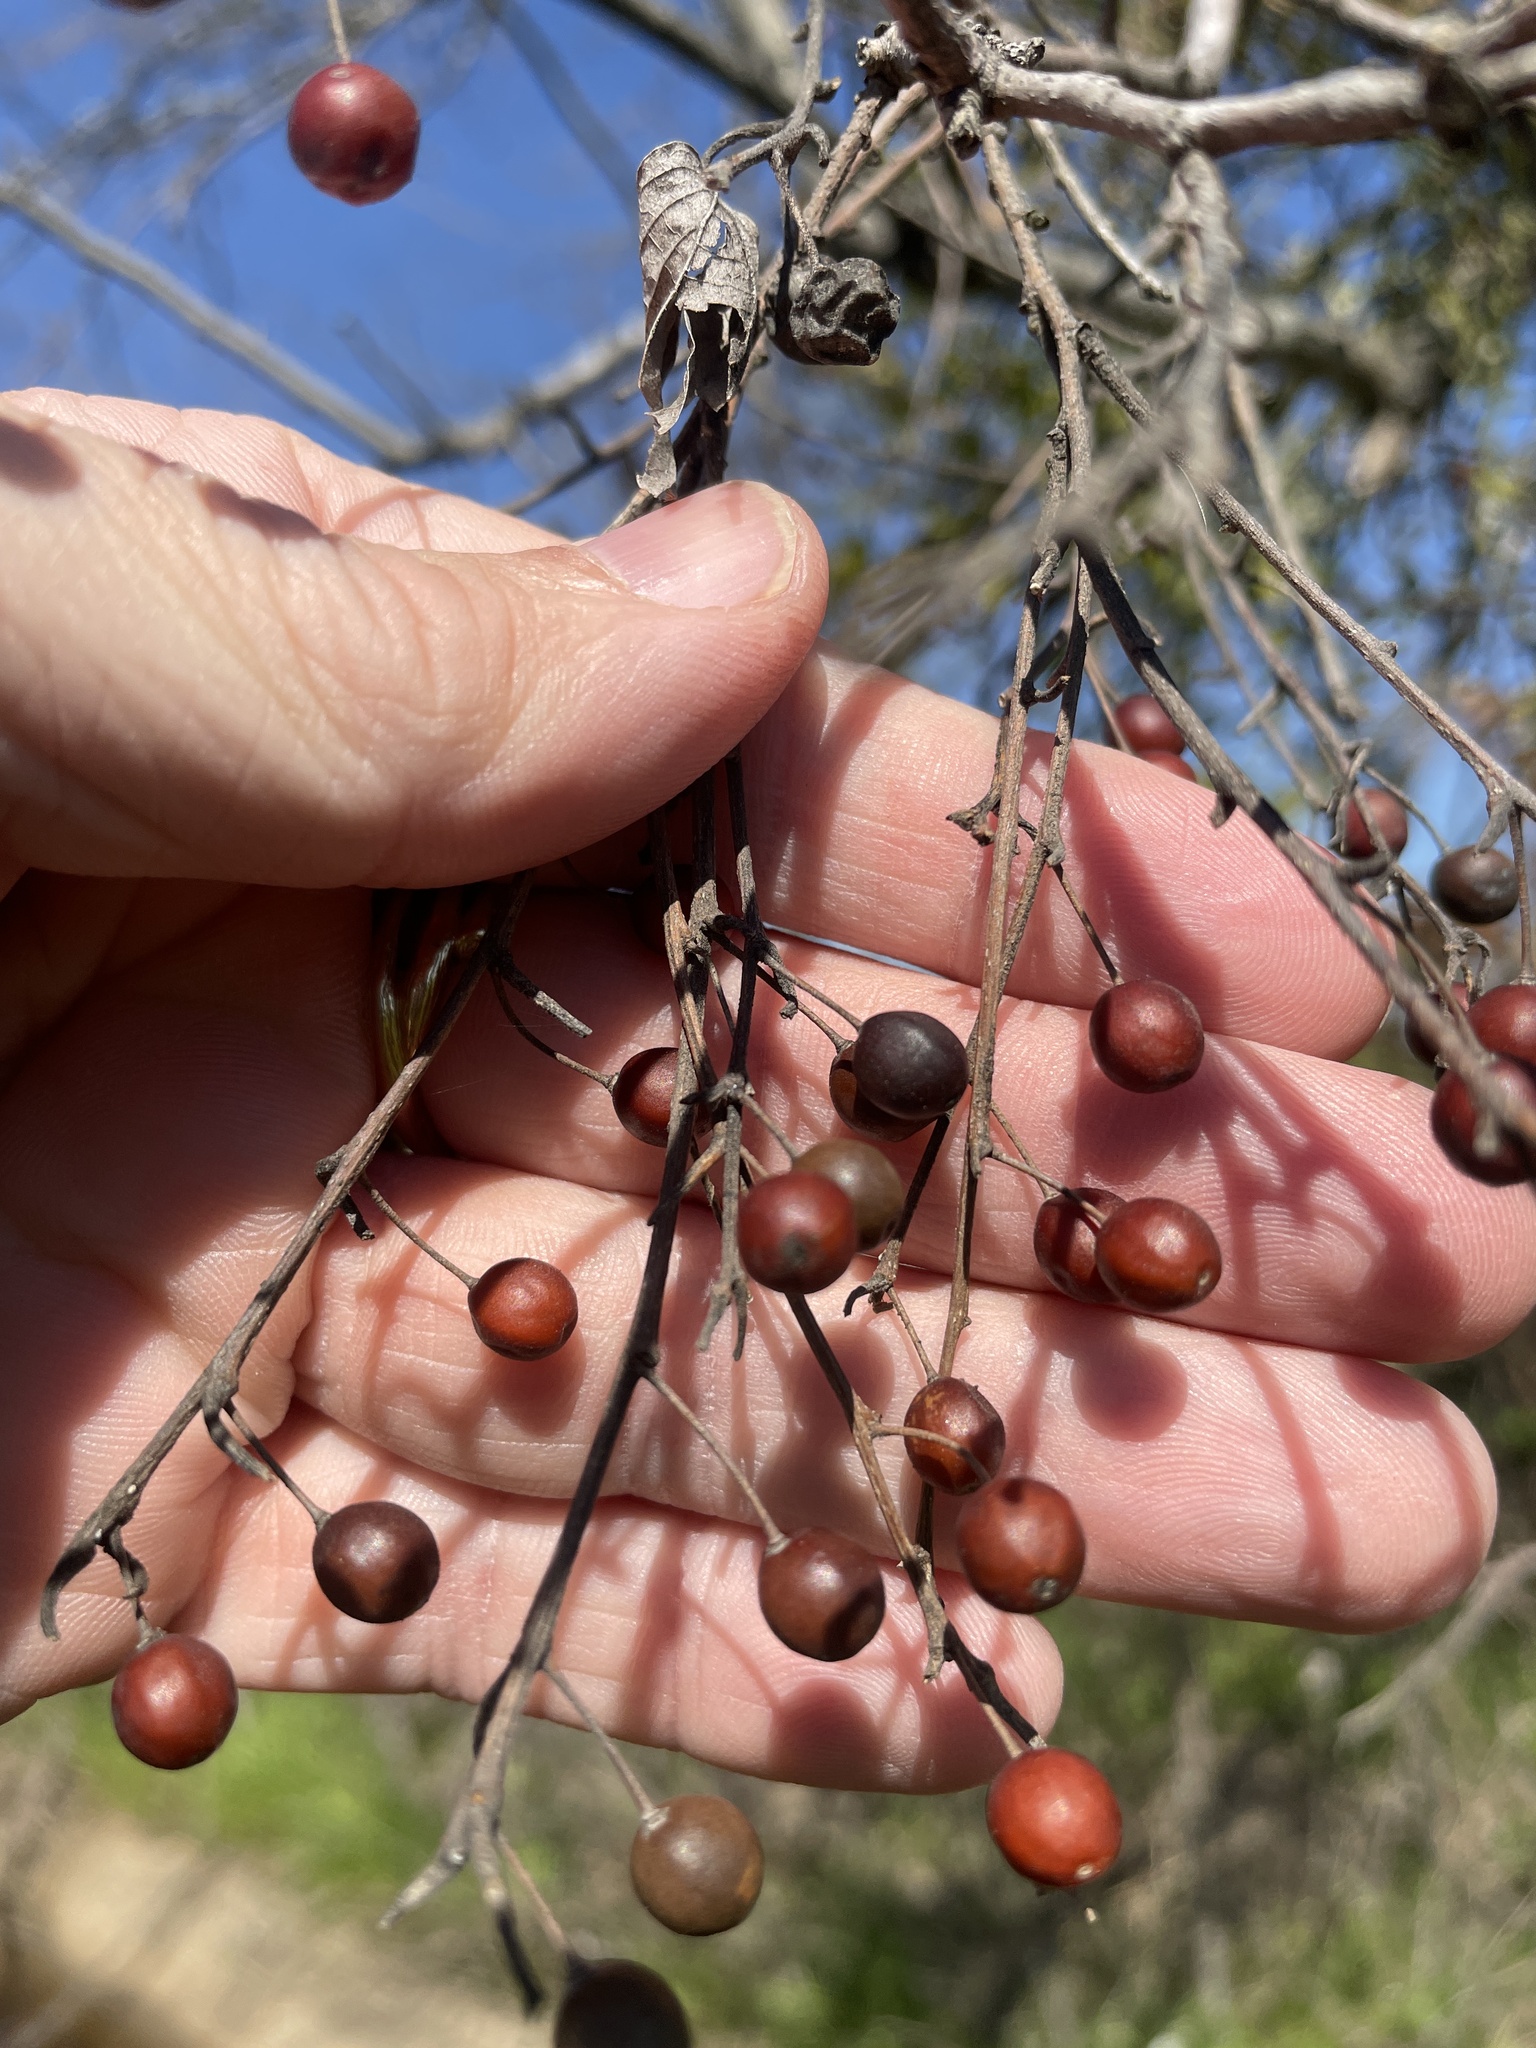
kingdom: Plantae
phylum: Tracheophyta
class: Magnoliopsida
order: Rosales
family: Cannabaceae
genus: Celtis
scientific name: Celtis laevigata
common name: Sugarberry
